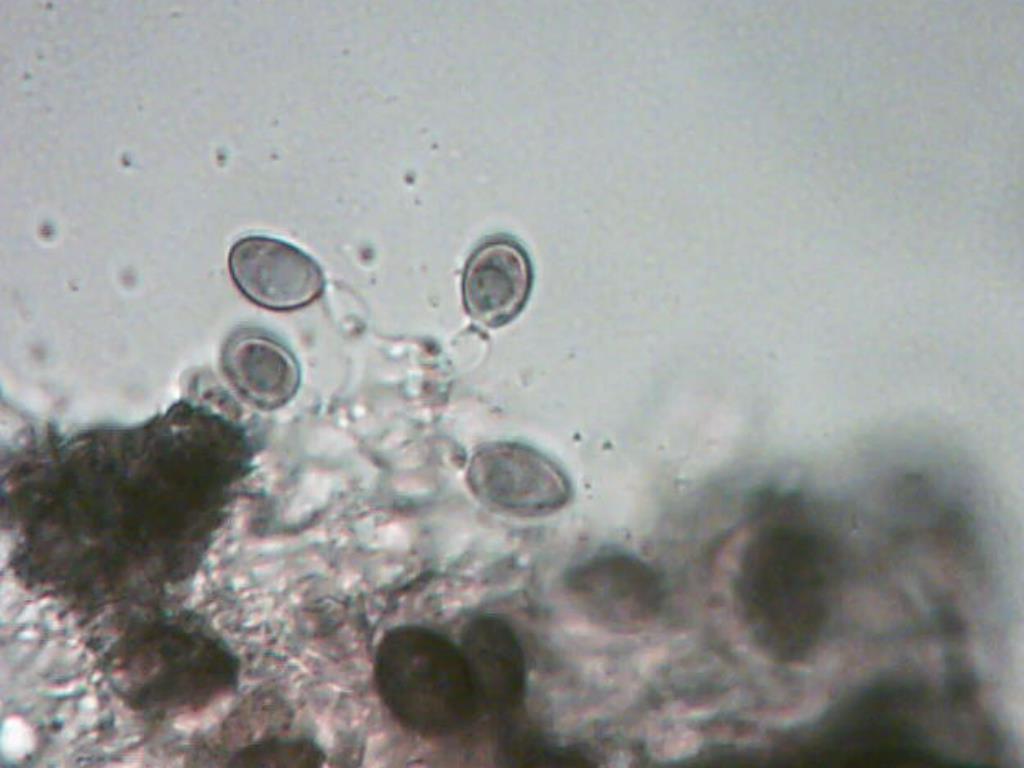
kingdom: Fungi
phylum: Basidiomycota
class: Agaricomycetes
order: Russulales
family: Stereaceae
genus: Acanthophysium
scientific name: Acanthophysium oakesii
